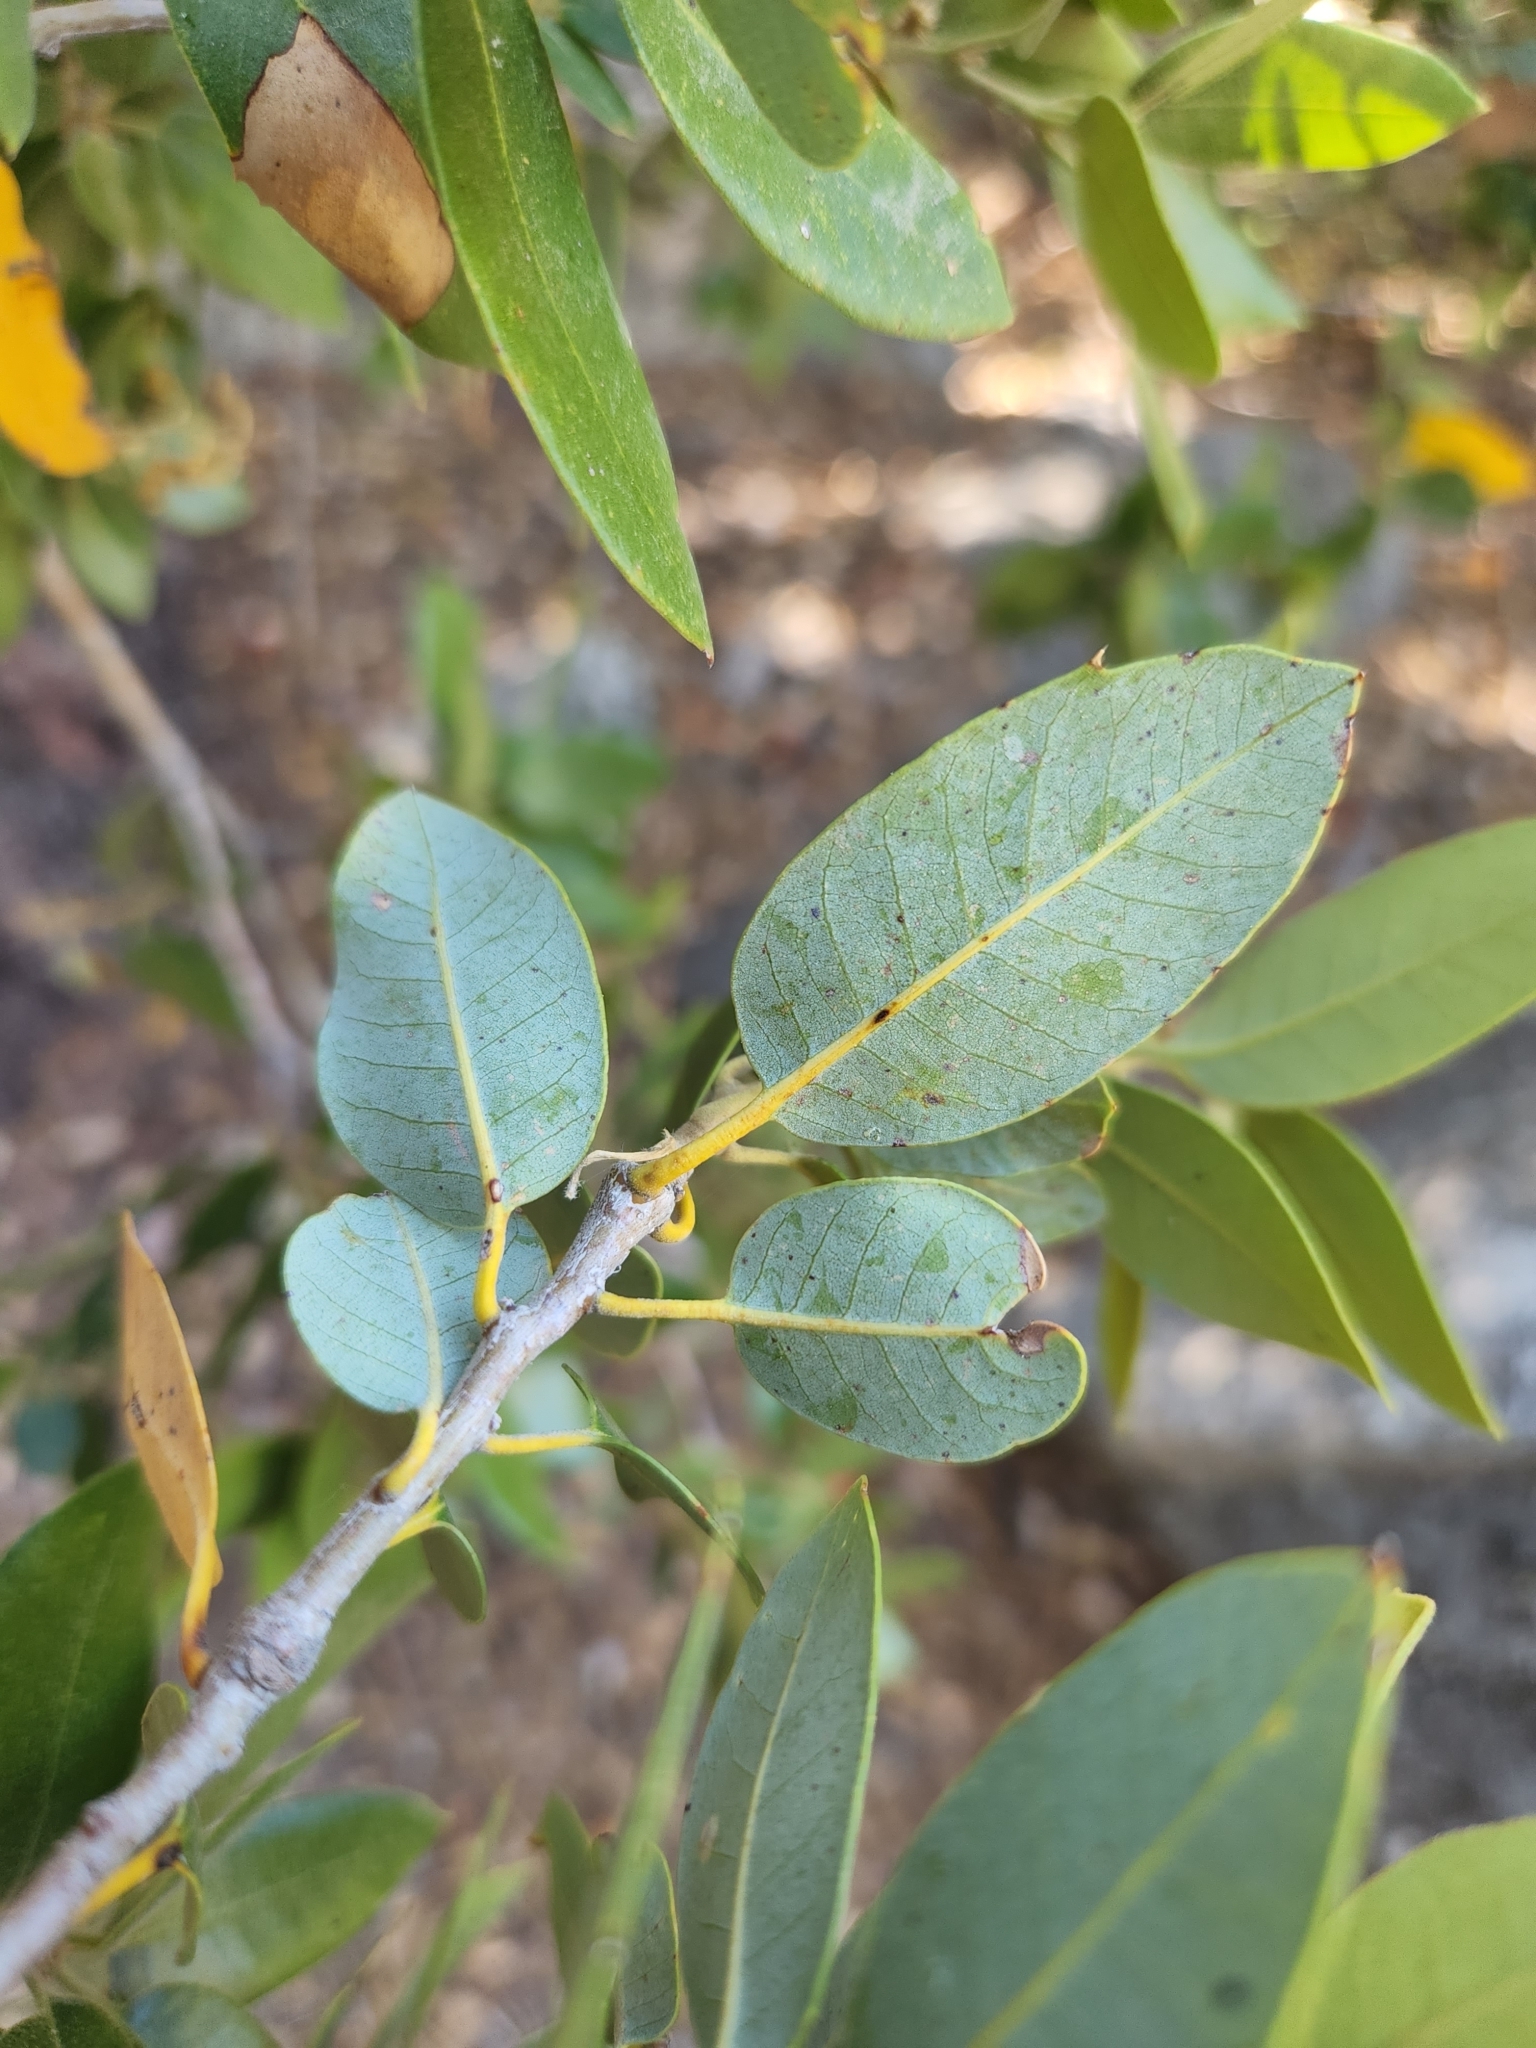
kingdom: Plantae
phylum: Tracheophyta
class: Magnoliopsida
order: Fagales
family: Fagaceae
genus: Quercus
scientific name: Quercus chrysolepis
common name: Canyon live oak
